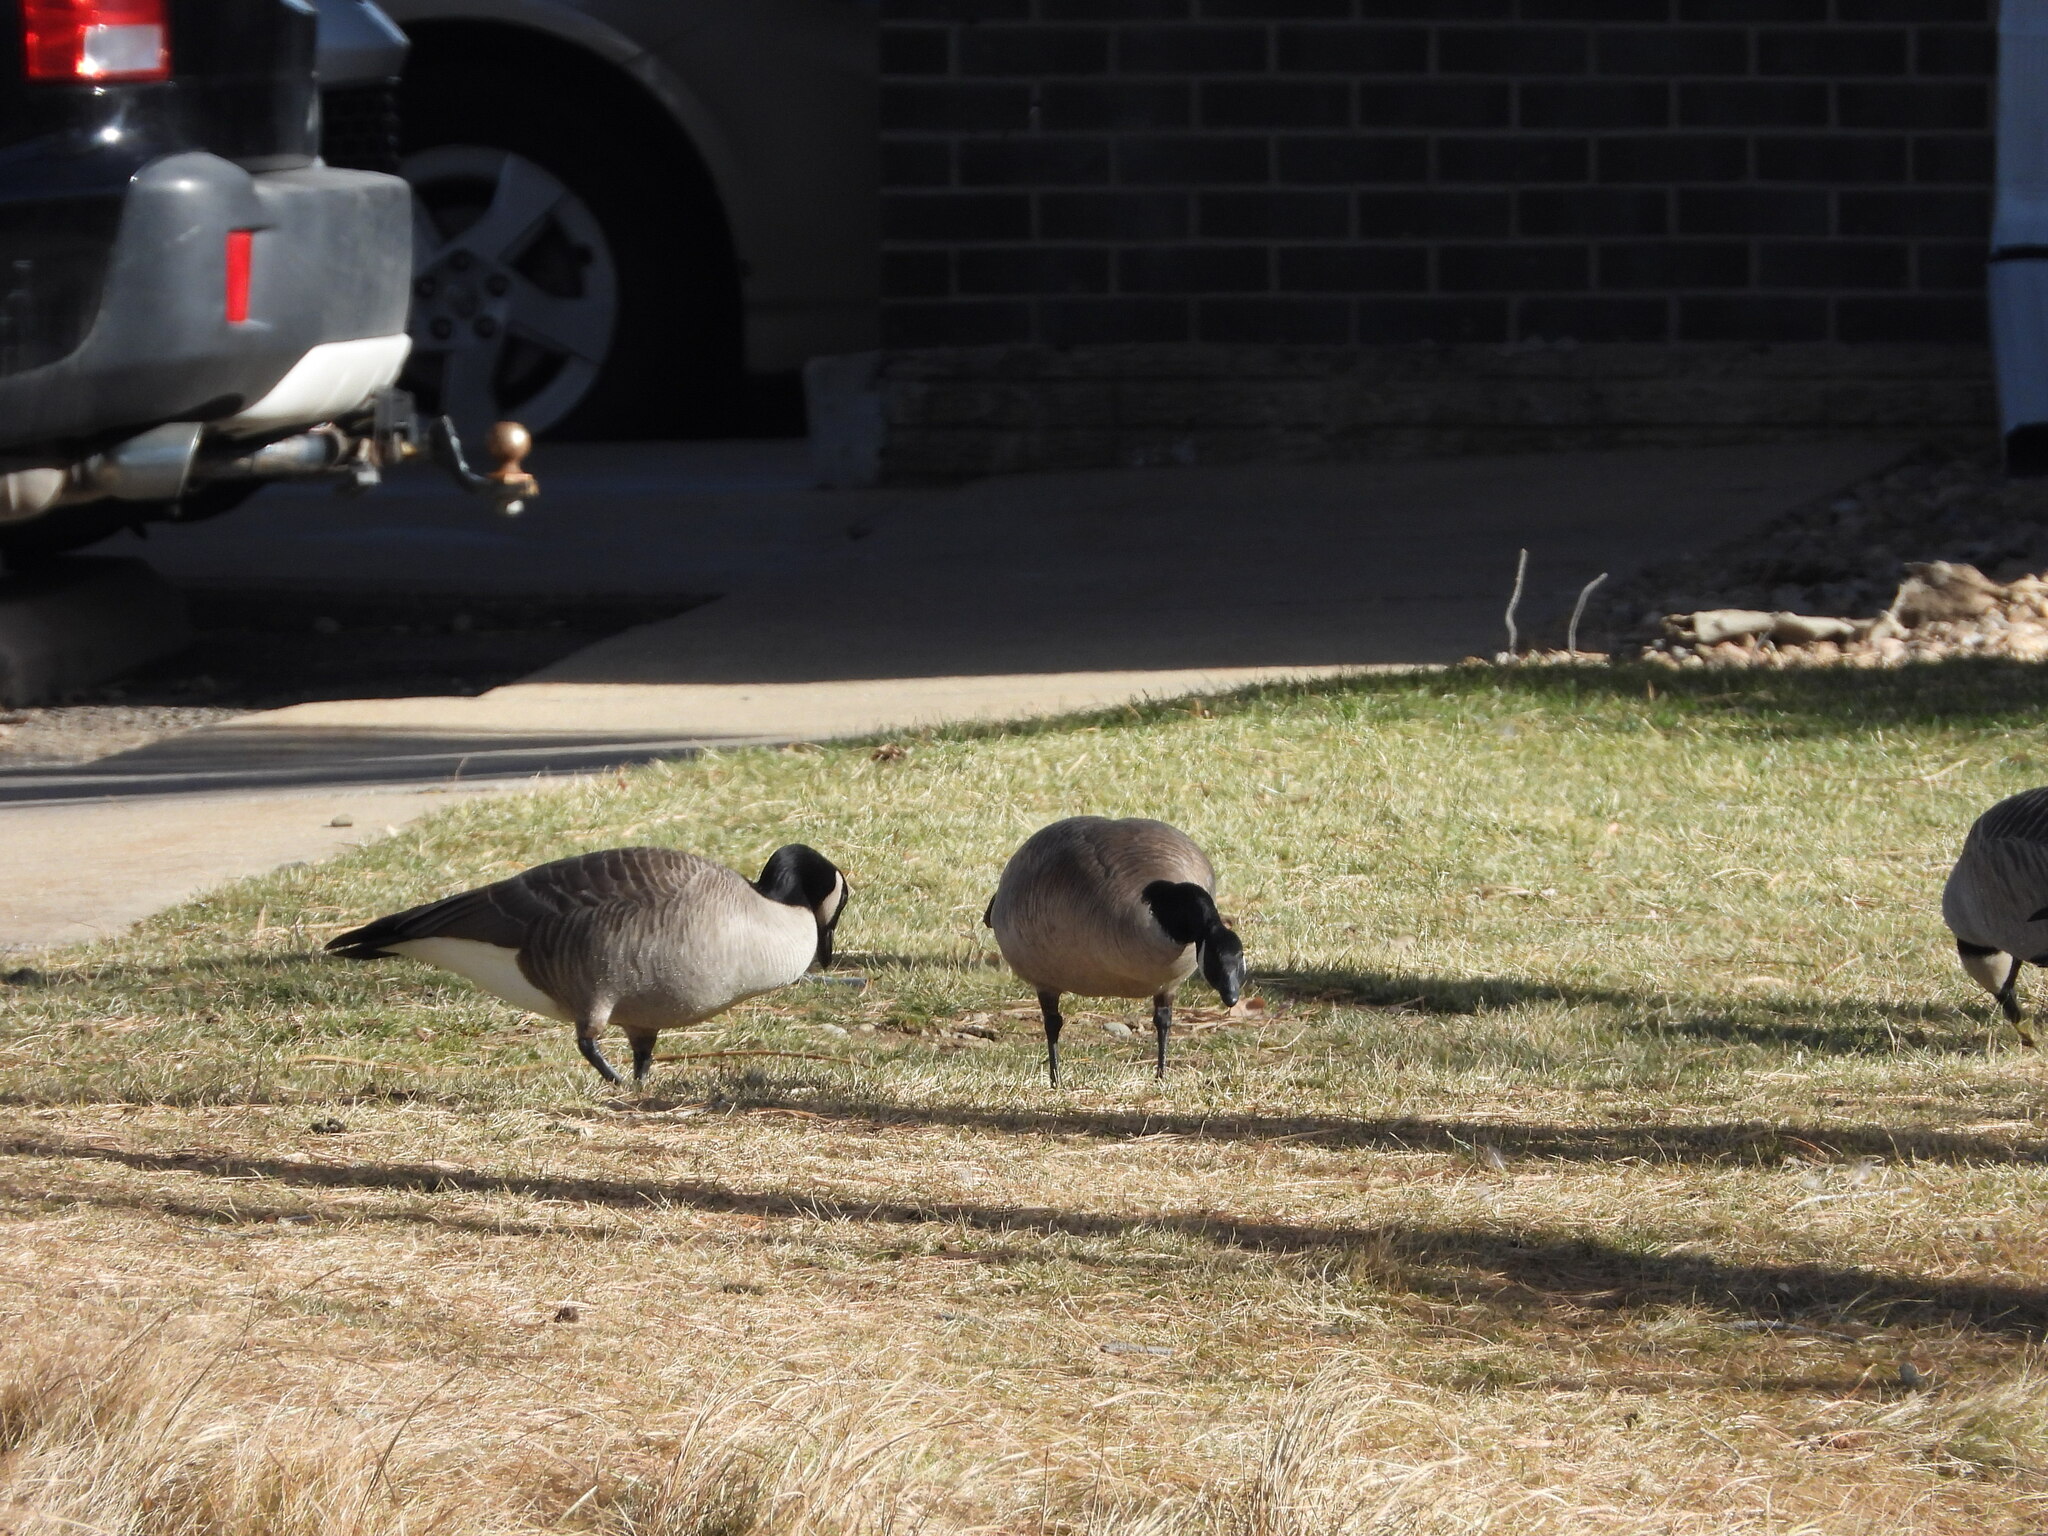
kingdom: Animalia
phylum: Chordata
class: Aves
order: Anseriformes
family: Anatidae
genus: Branta
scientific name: Branta canadensis
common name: Canada goose
